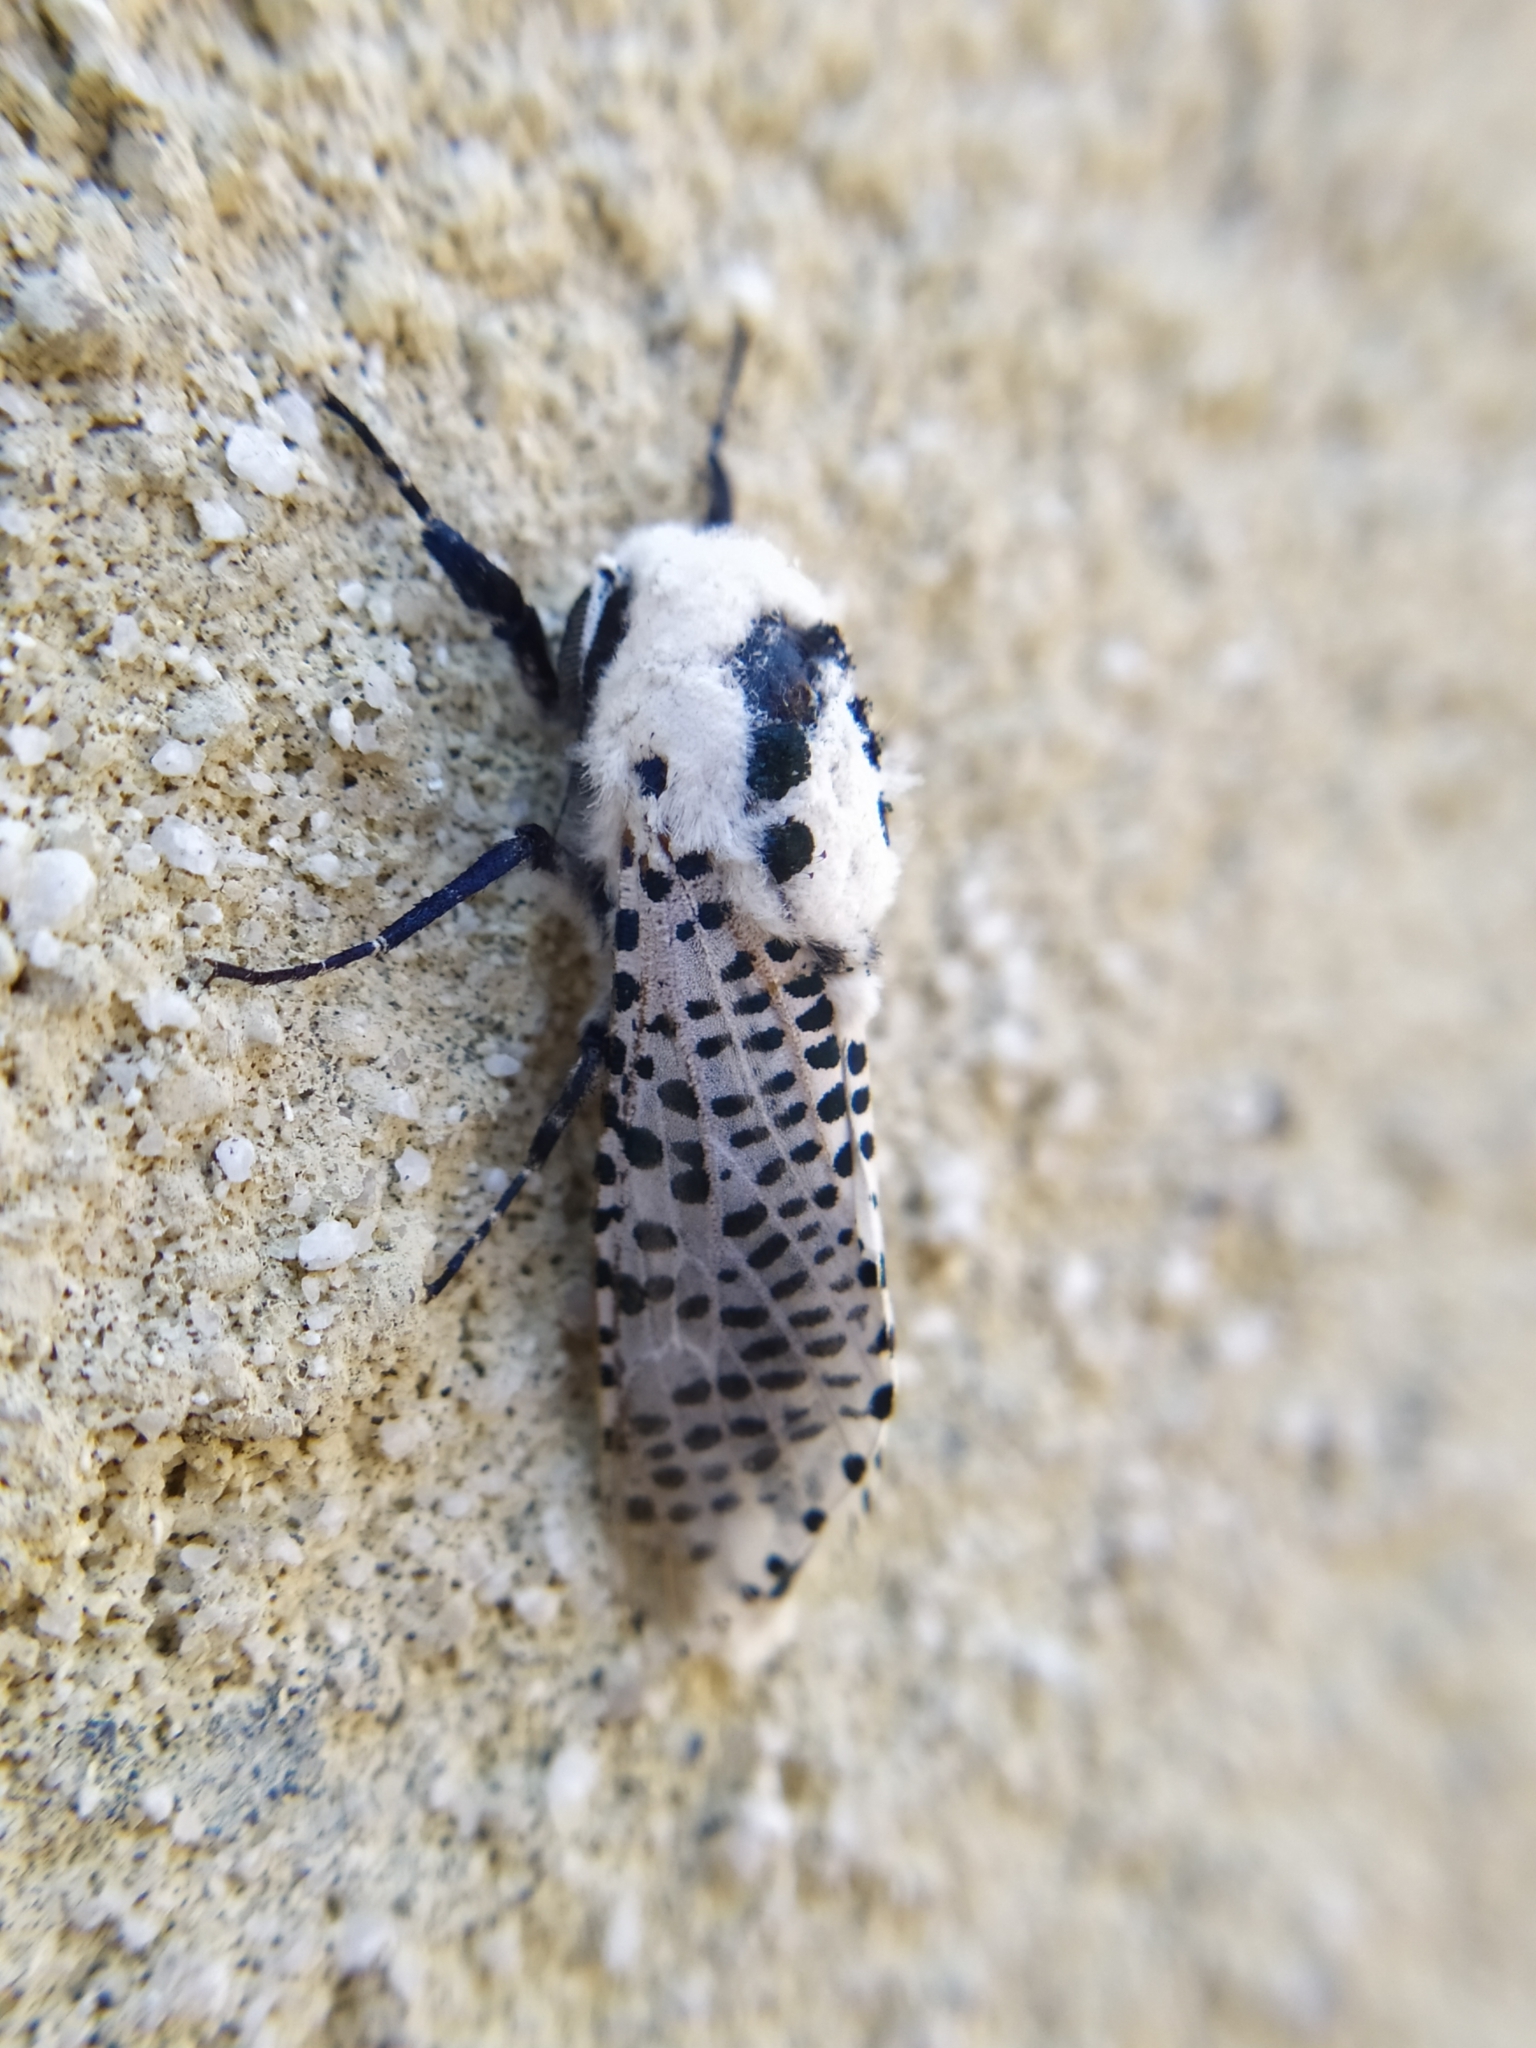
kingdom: Animalia
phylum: Arthropoda
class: Insecta
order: Lepidoptera
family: Cossidae
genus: Zeuzera
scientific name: Zeuzera pyrina
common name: Leopard moth
